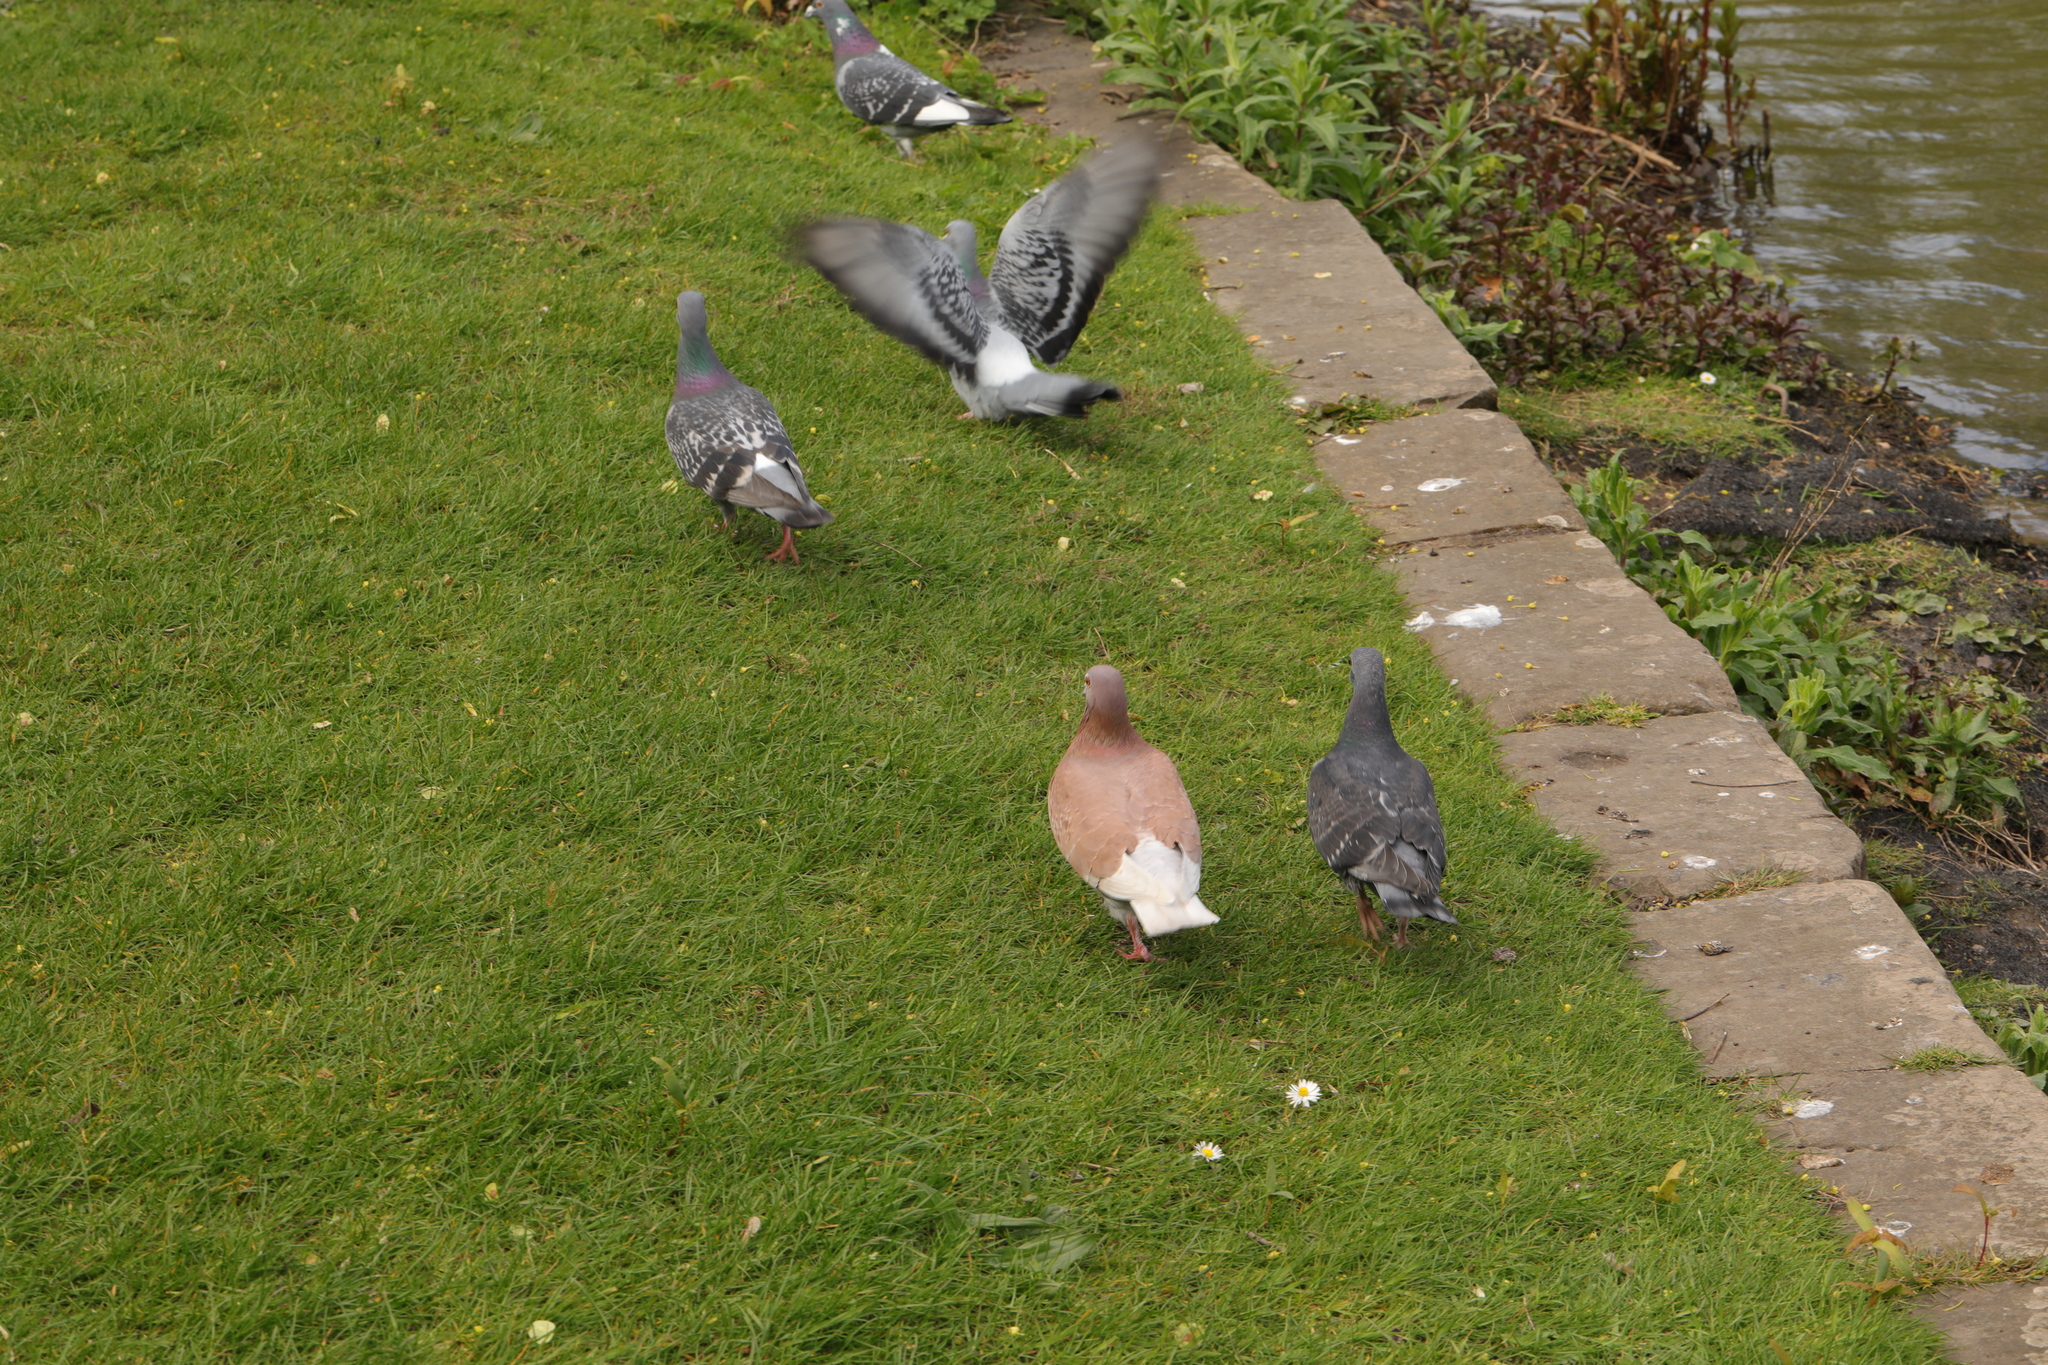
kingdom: Animalia
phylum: Chordata
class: Aves
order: Columbiformes
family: Columbidae
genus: Columba
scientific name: Columba livia
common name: Rock pigeon
